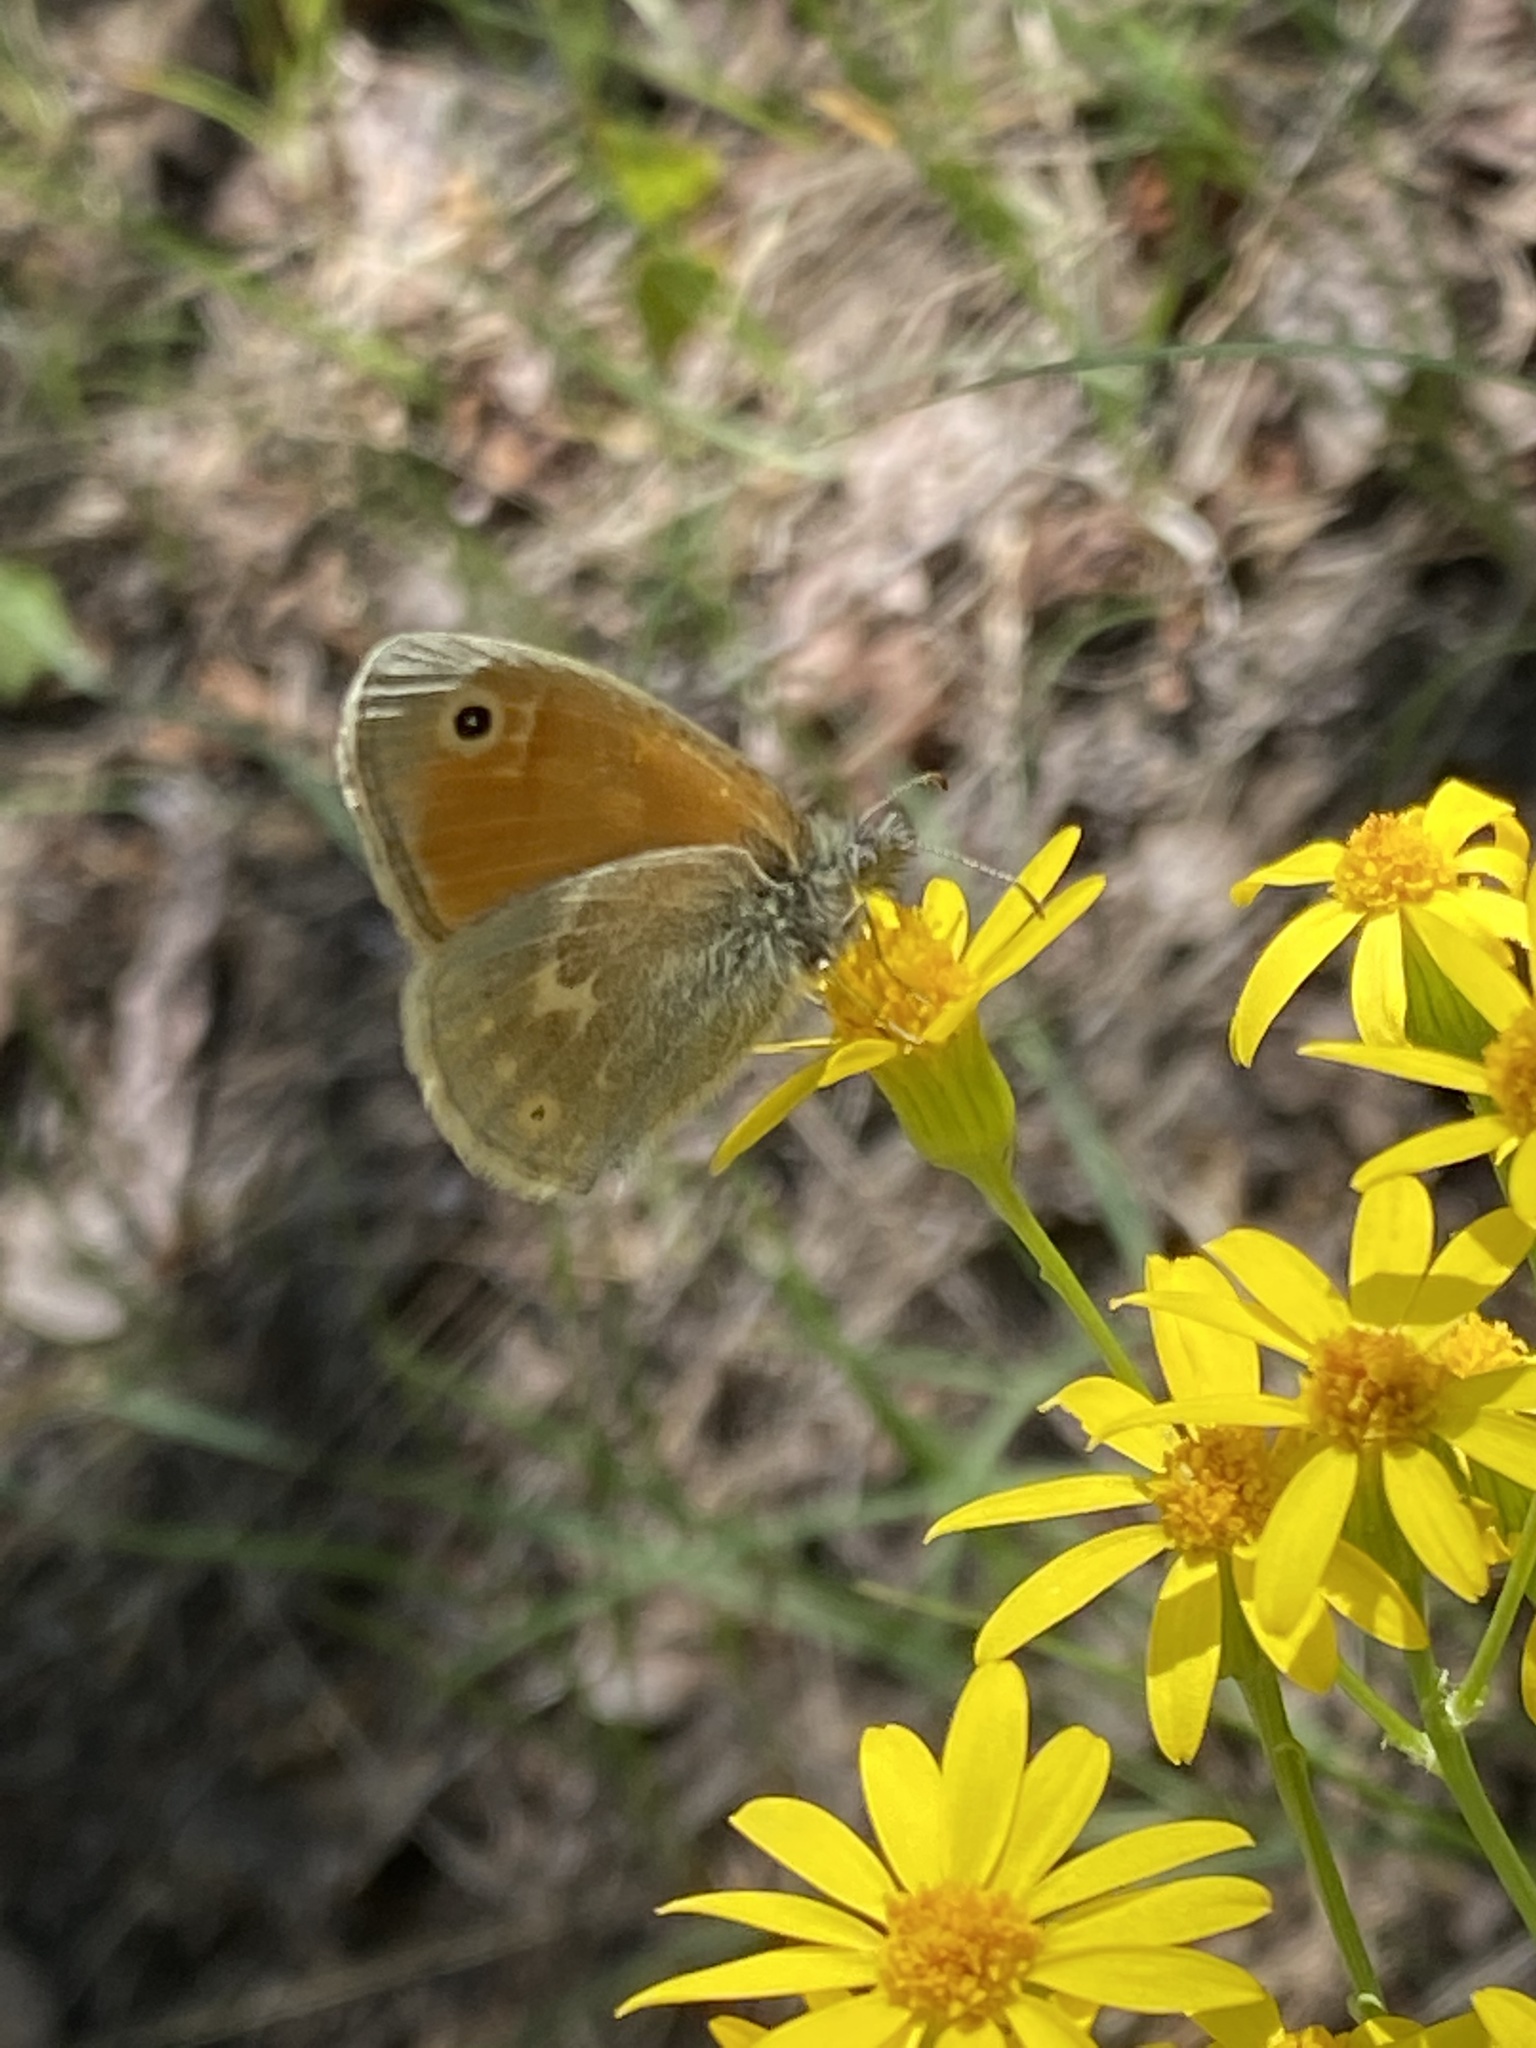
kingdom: Animalia
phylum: Arthropoda
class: Insecta
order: Lepidoptera
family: Nymphalidae
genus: Coenonympha
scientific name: Coenonympha california
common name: Common ringlet
